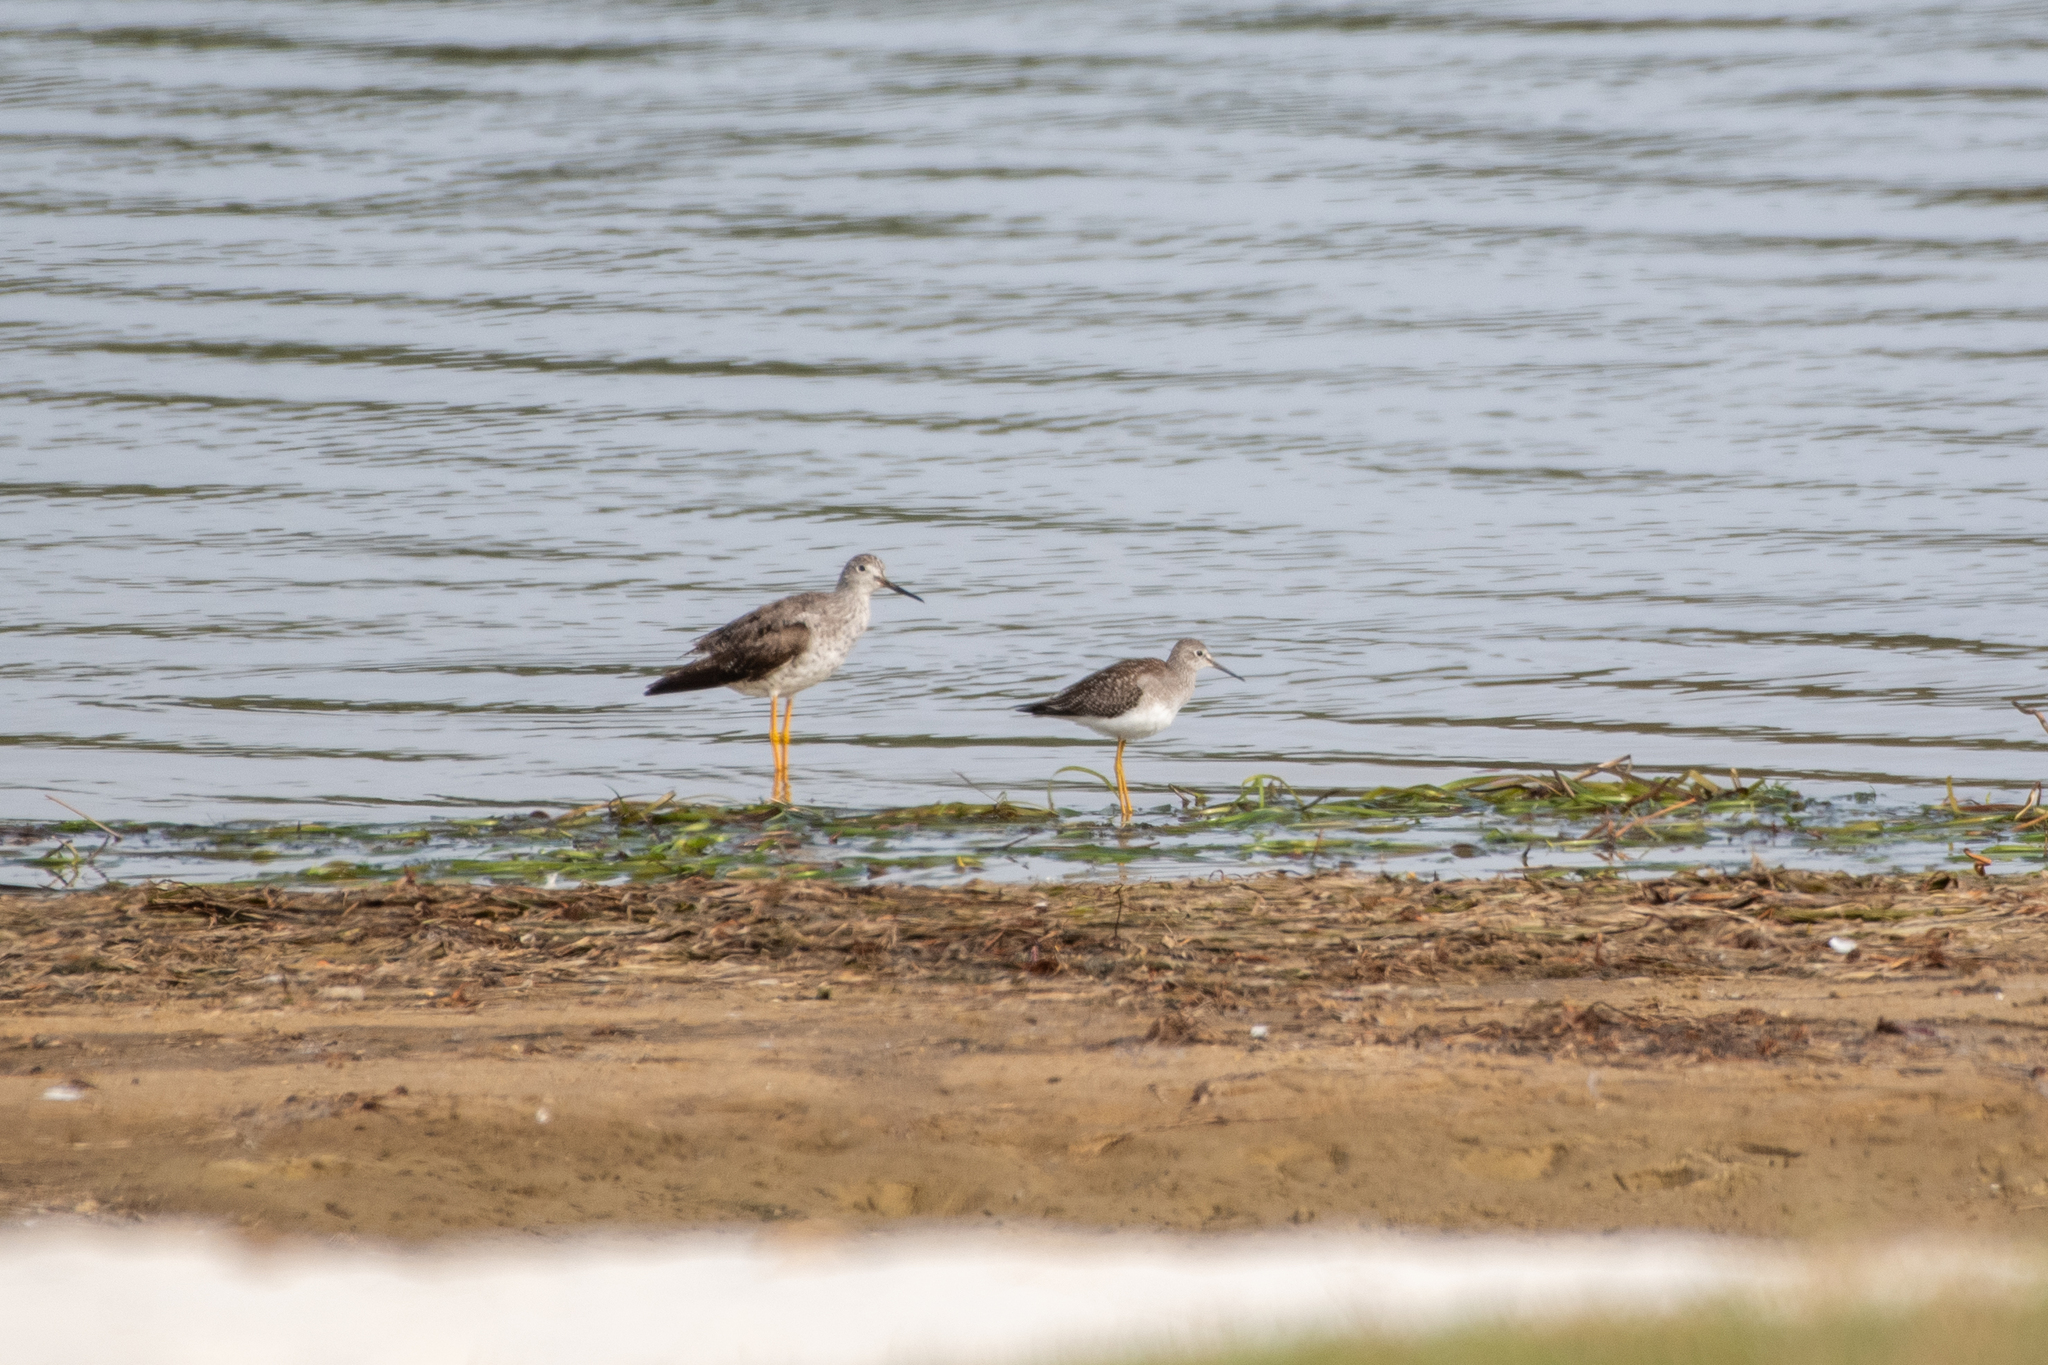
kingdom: Animalia
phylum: Chordata
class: Aves
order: Charadriiformes
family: Scolopacidae
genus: Tringa
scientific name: Tringa melanoleuca
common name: Greater yellowlegs
